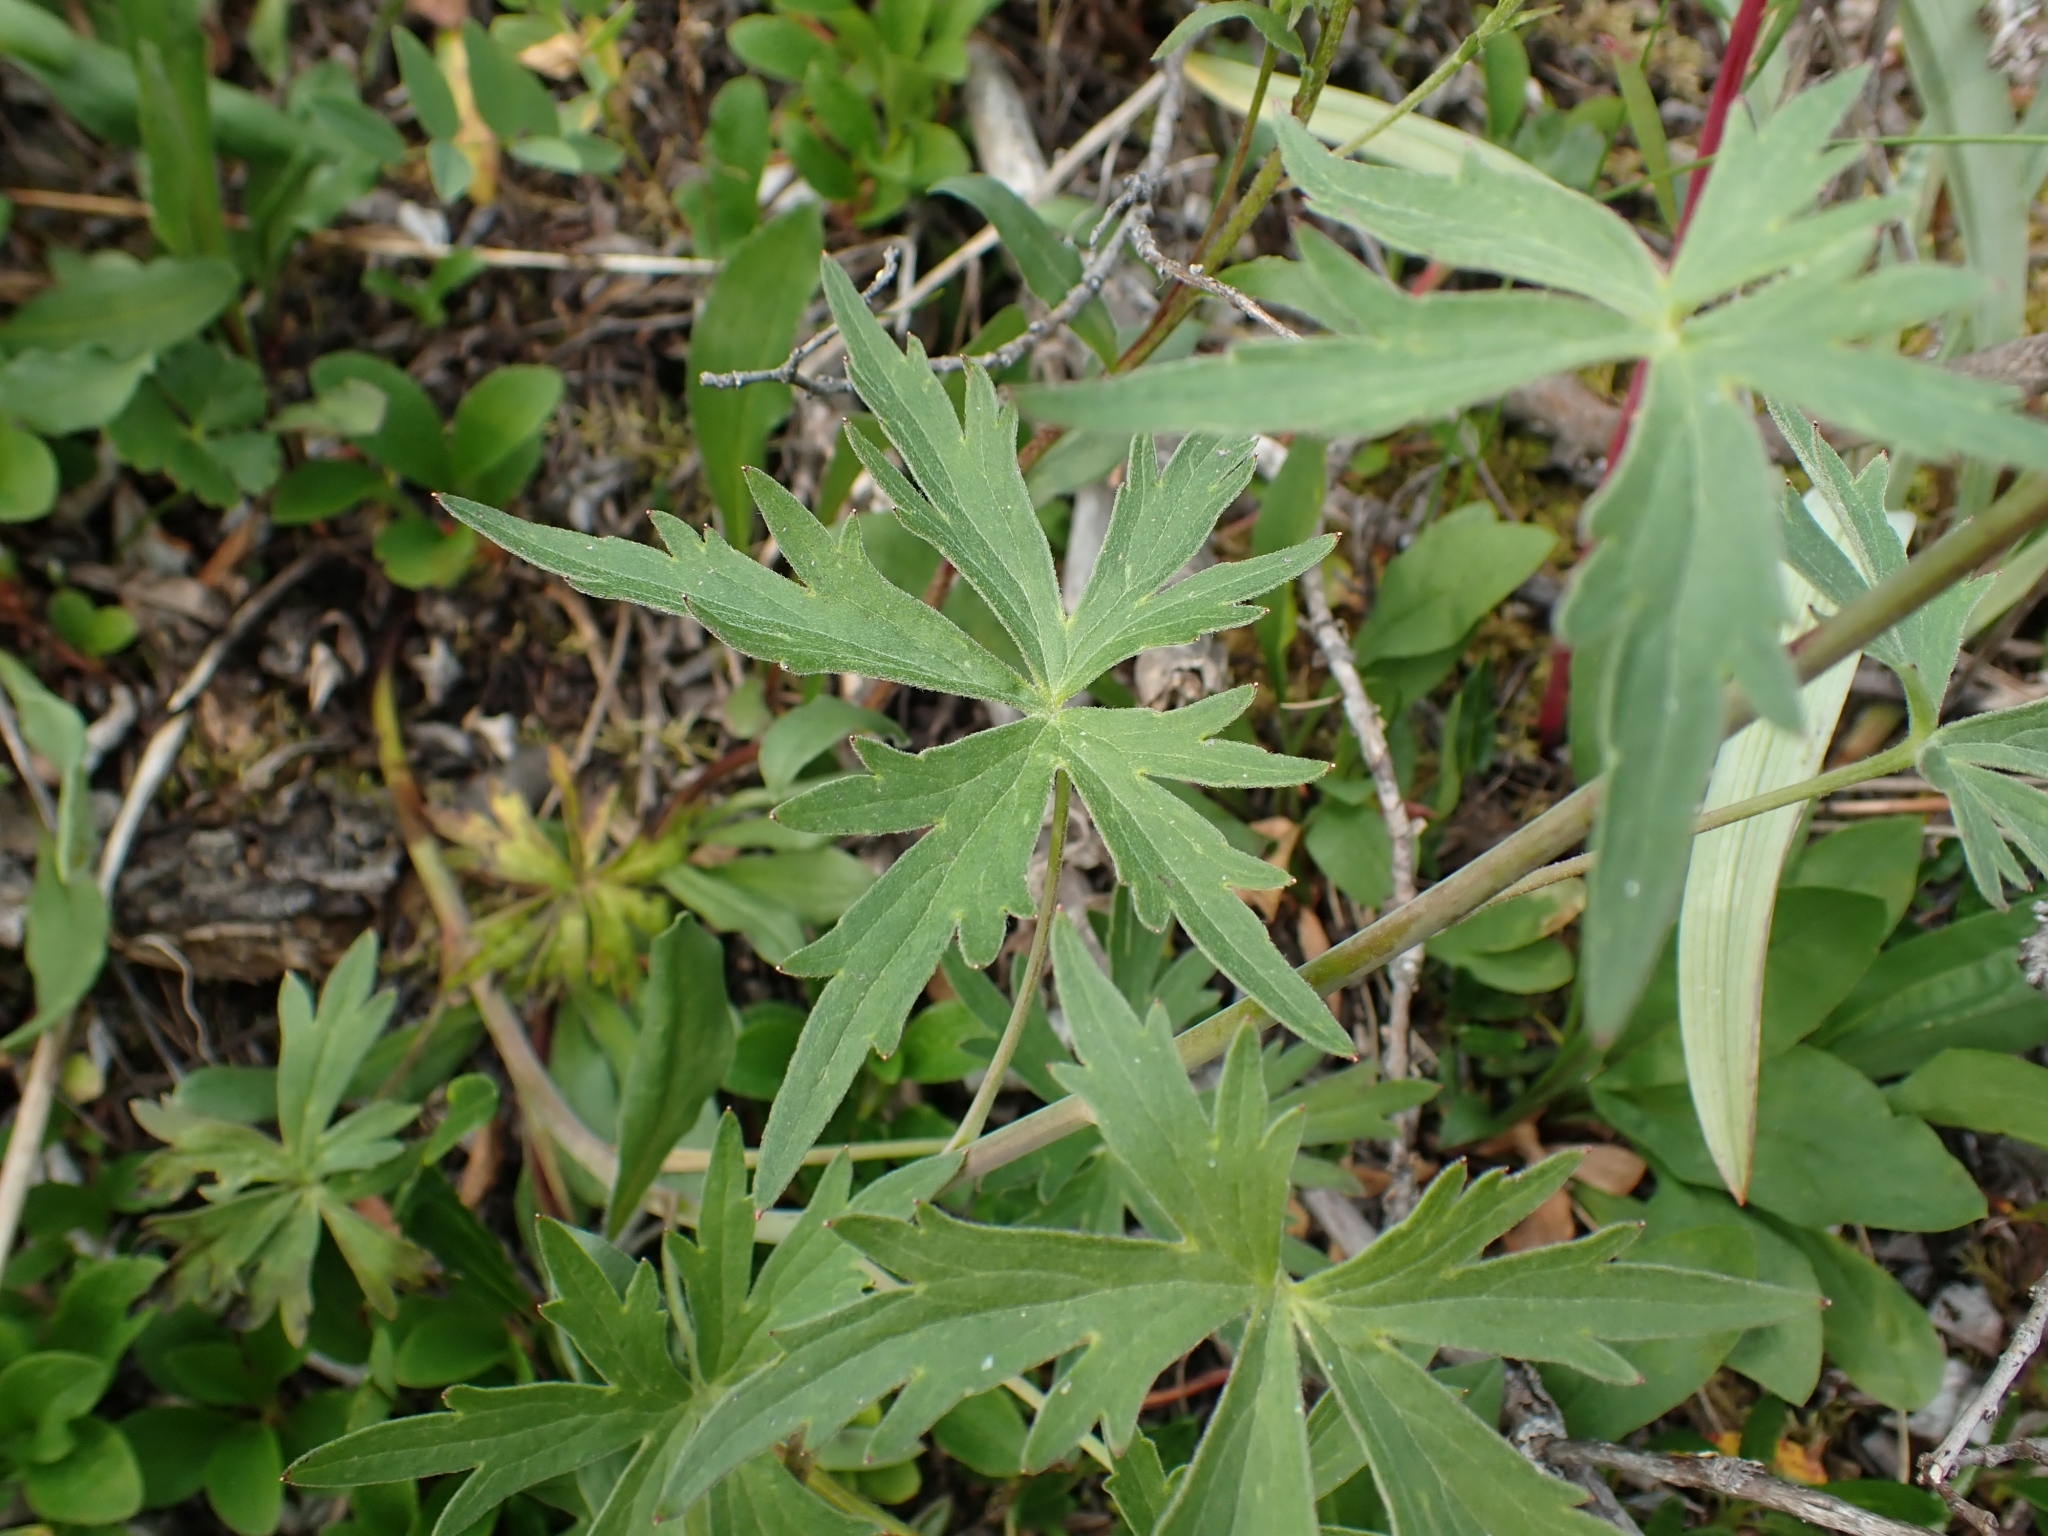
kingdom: Plantae
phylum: Tracheophyta
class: Magnoliopsida
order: Ranunculales
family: Ranunculaceae
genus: Delphinium
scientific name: Delphinium glaucum
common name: Brown's larkspur
